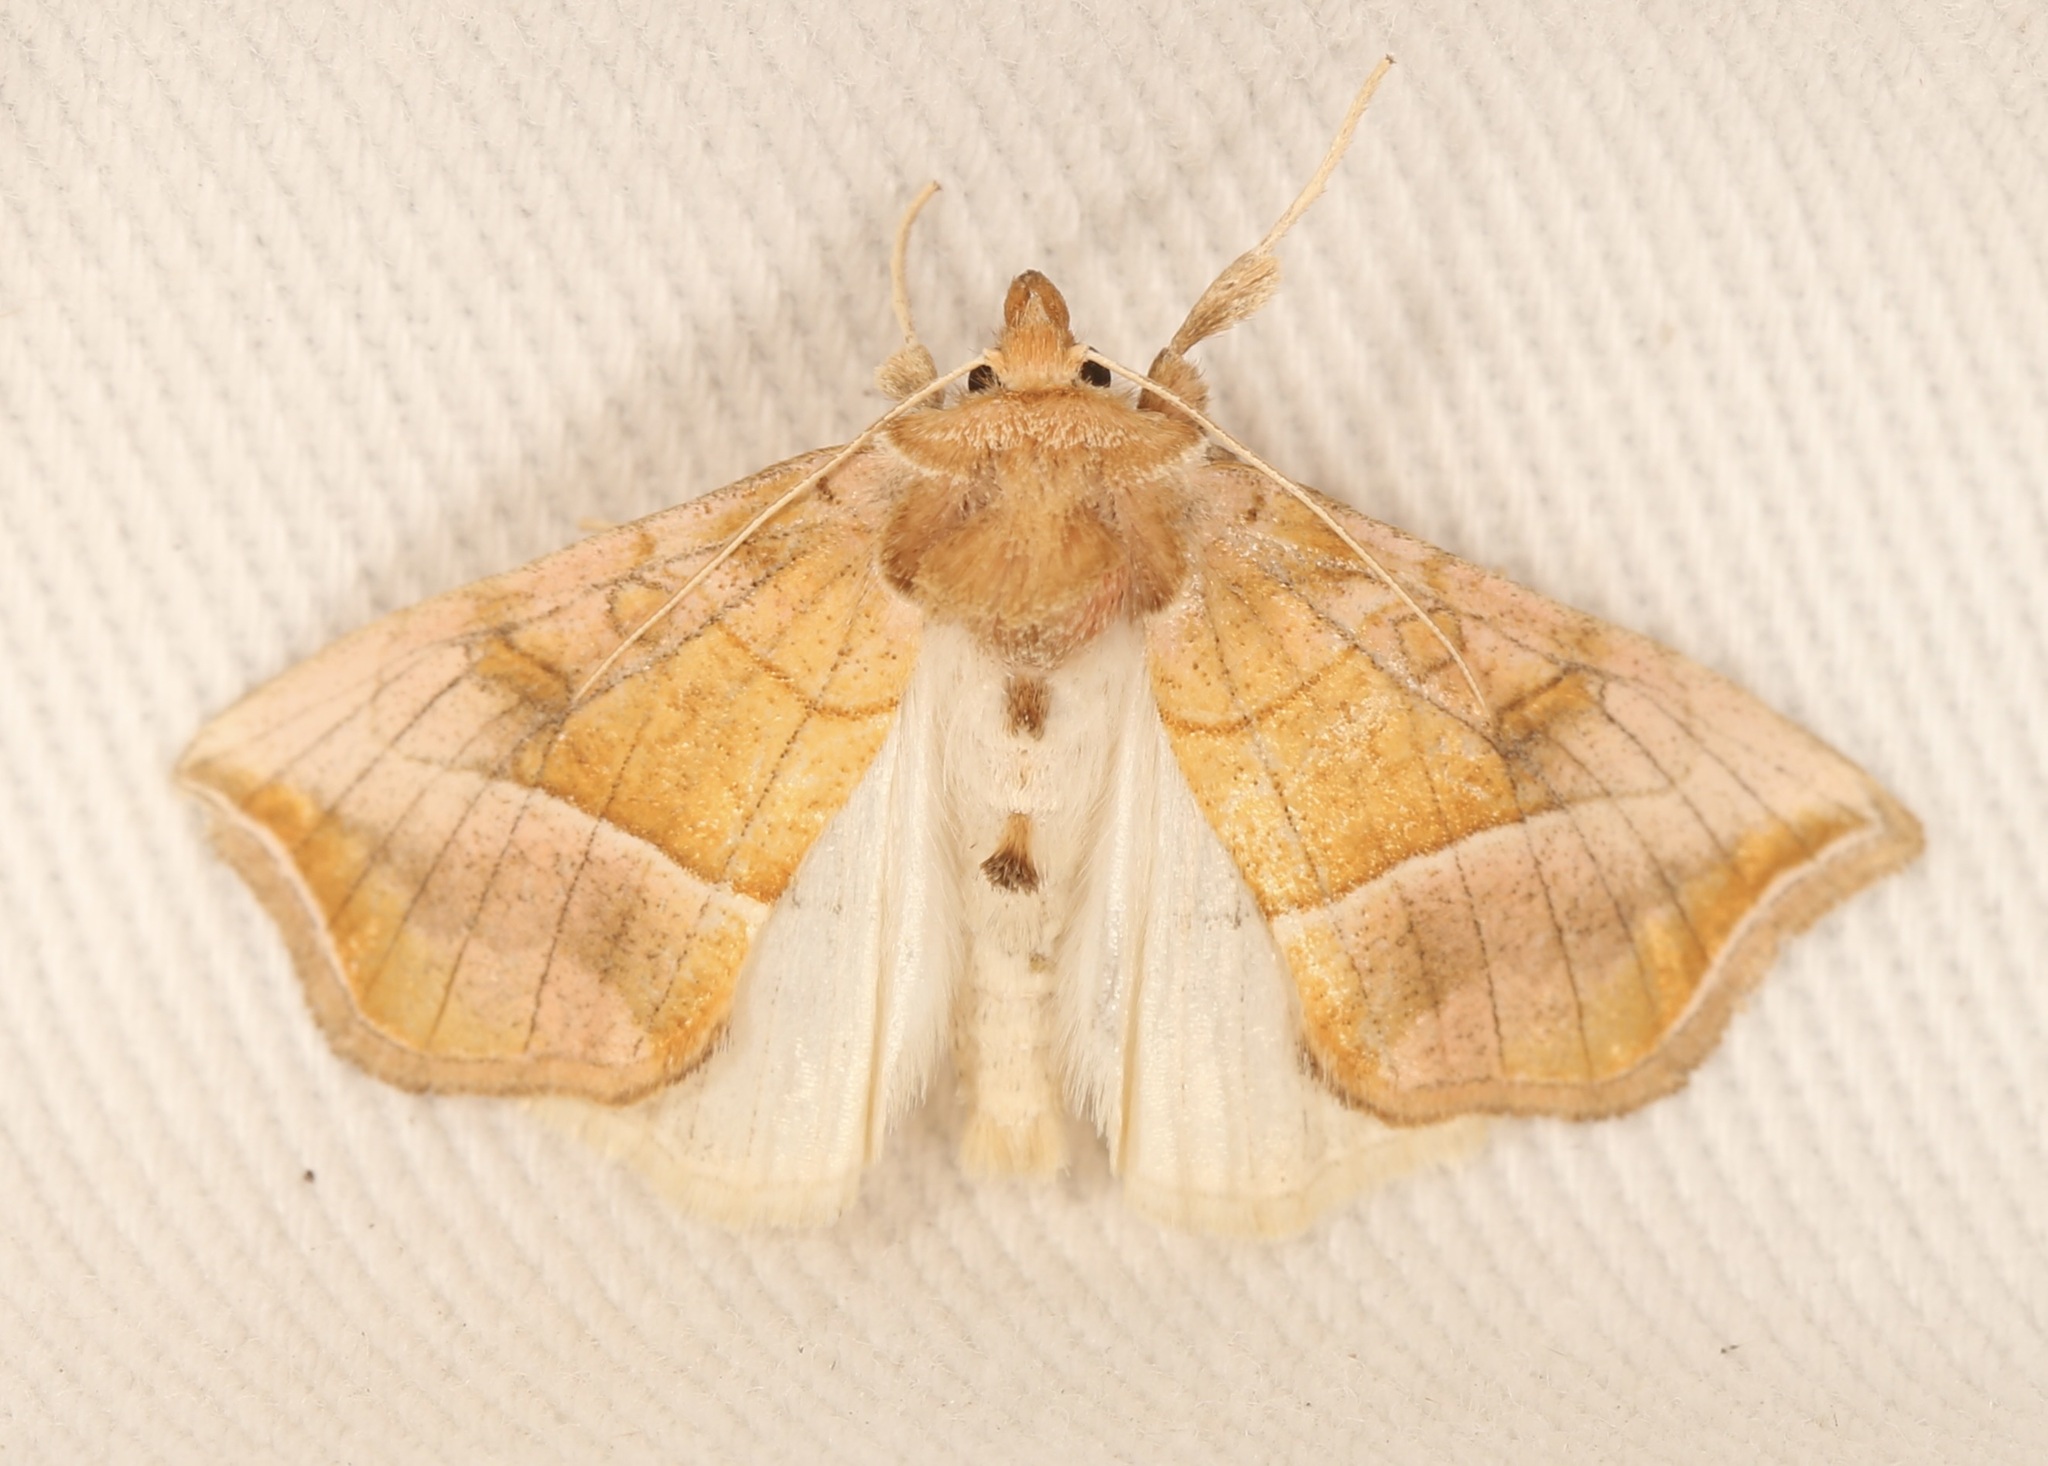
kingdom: Animalia
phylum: Arthropoda
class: Insecta
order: Lepidoptera
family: Noctuidae
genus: Pseudeva
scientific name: Pseudeva palligera
